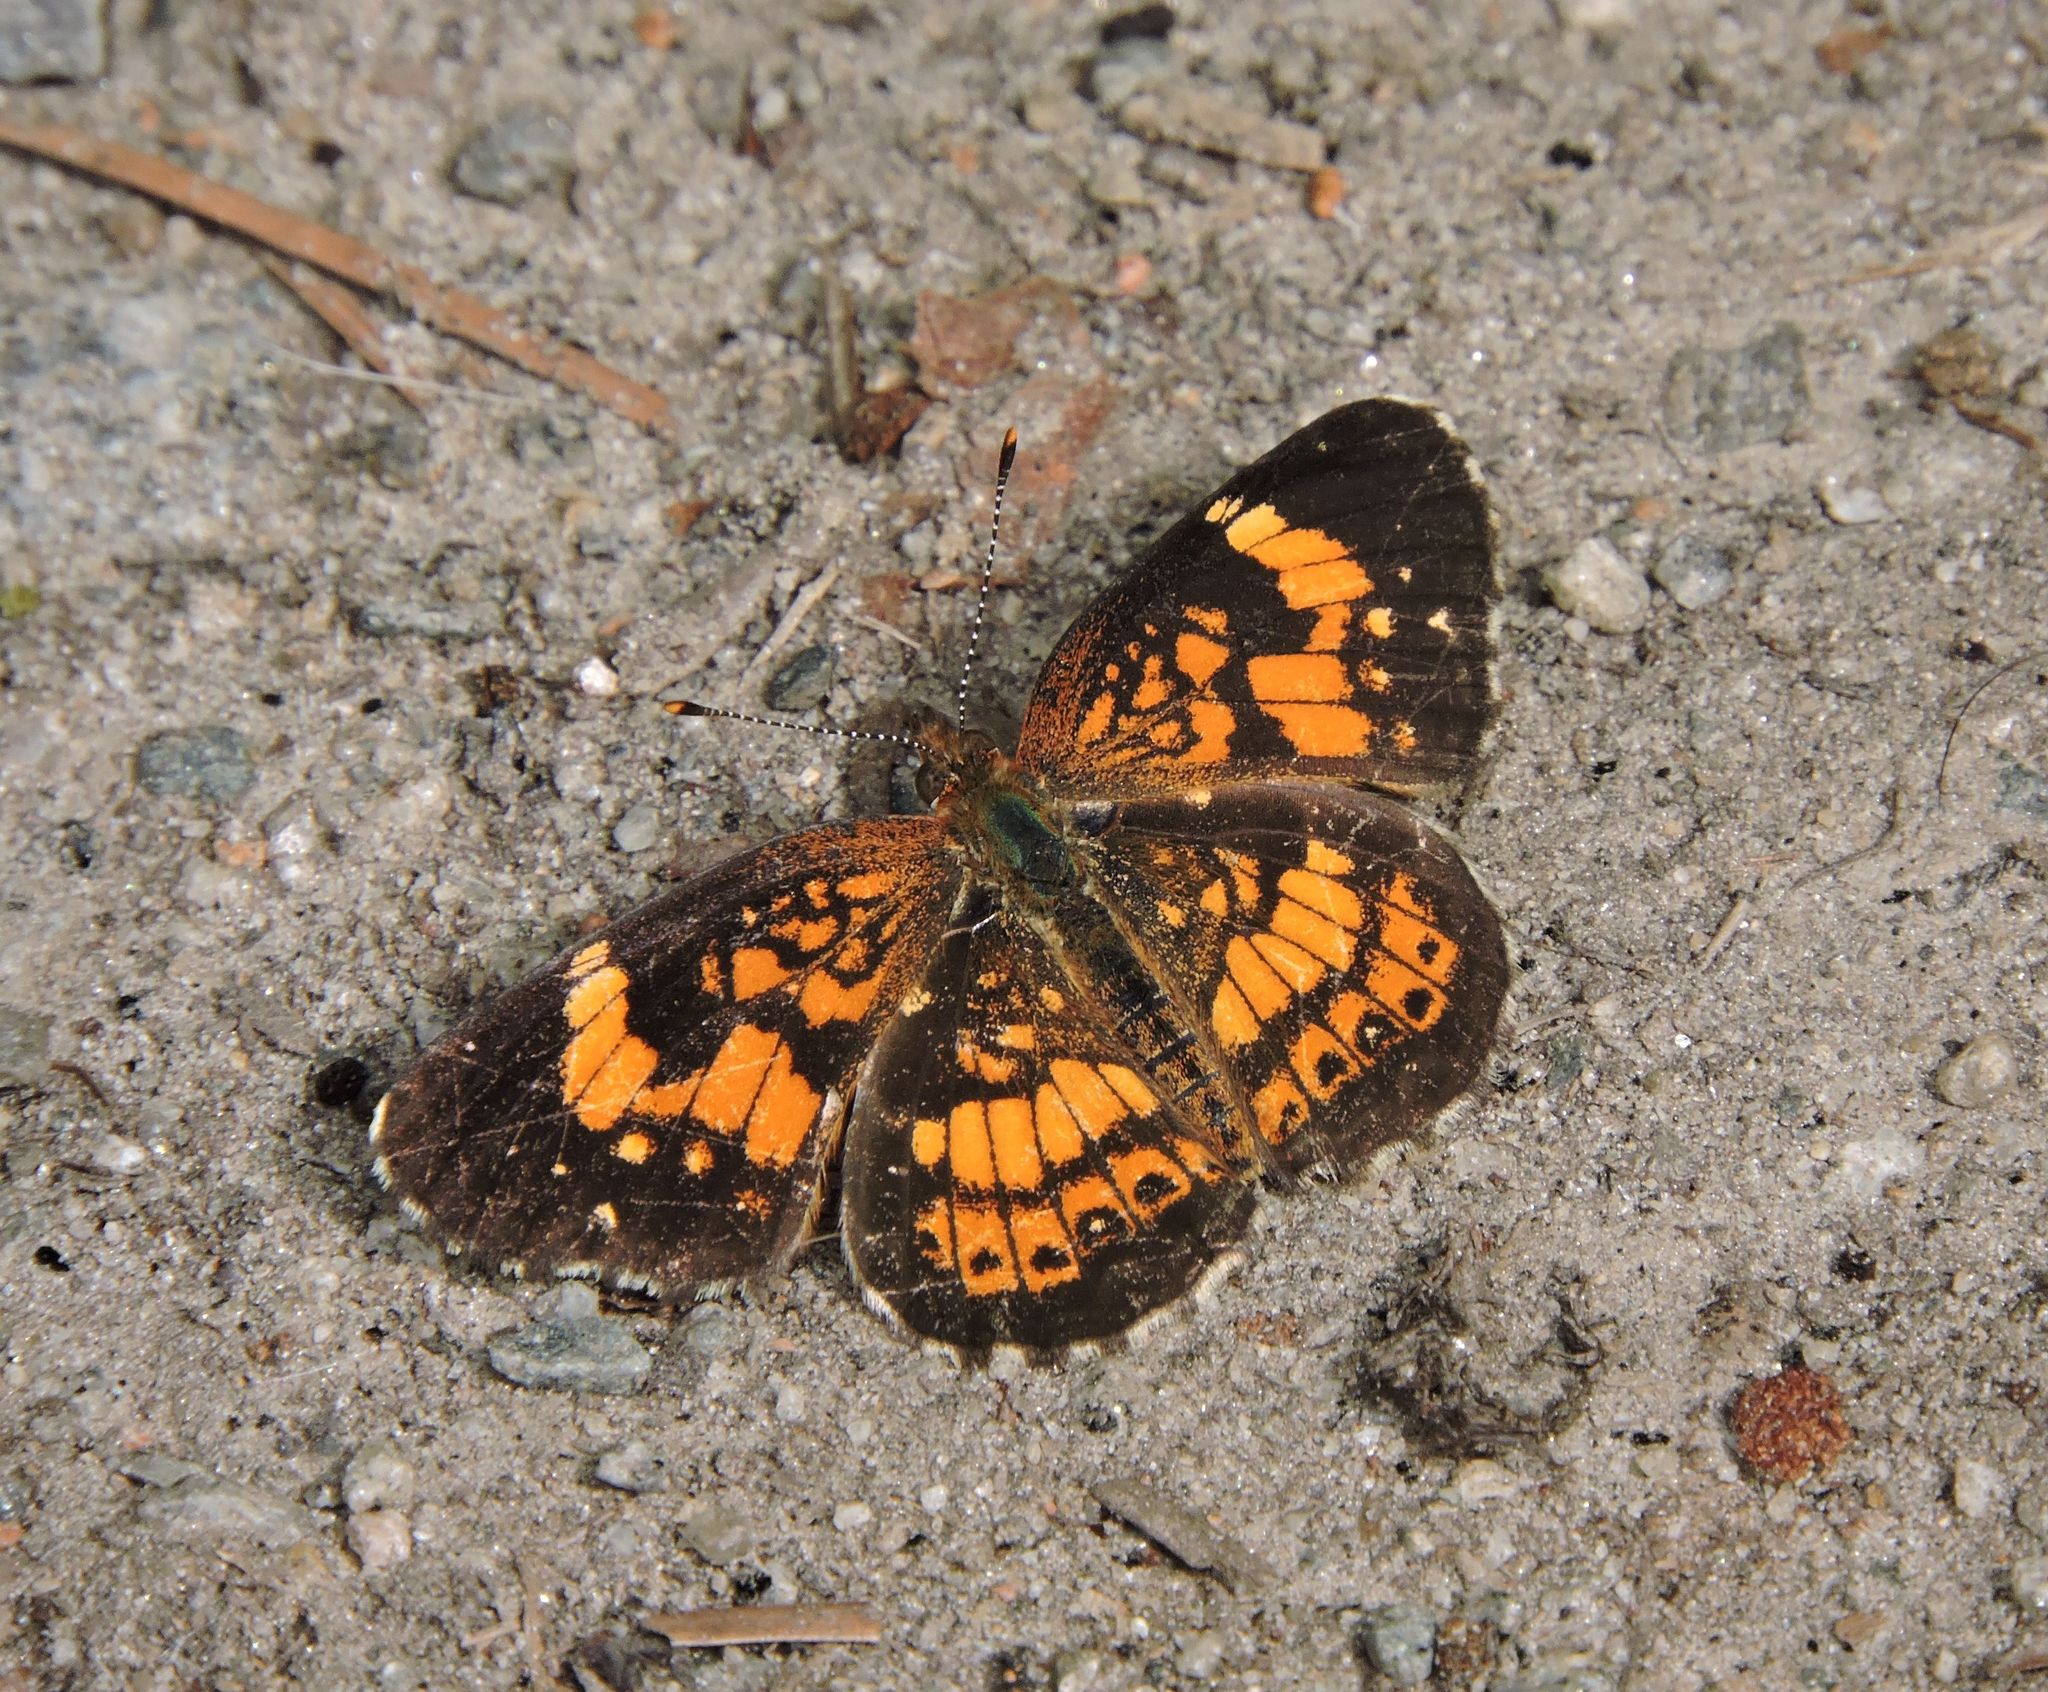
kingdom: Animalia
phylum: Arthropoda
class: Insecta
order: Lepidoptera
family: Nymphalidae
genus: Chlosyne
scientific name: Chlosyne nycteis
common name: Silvery checkerspot
